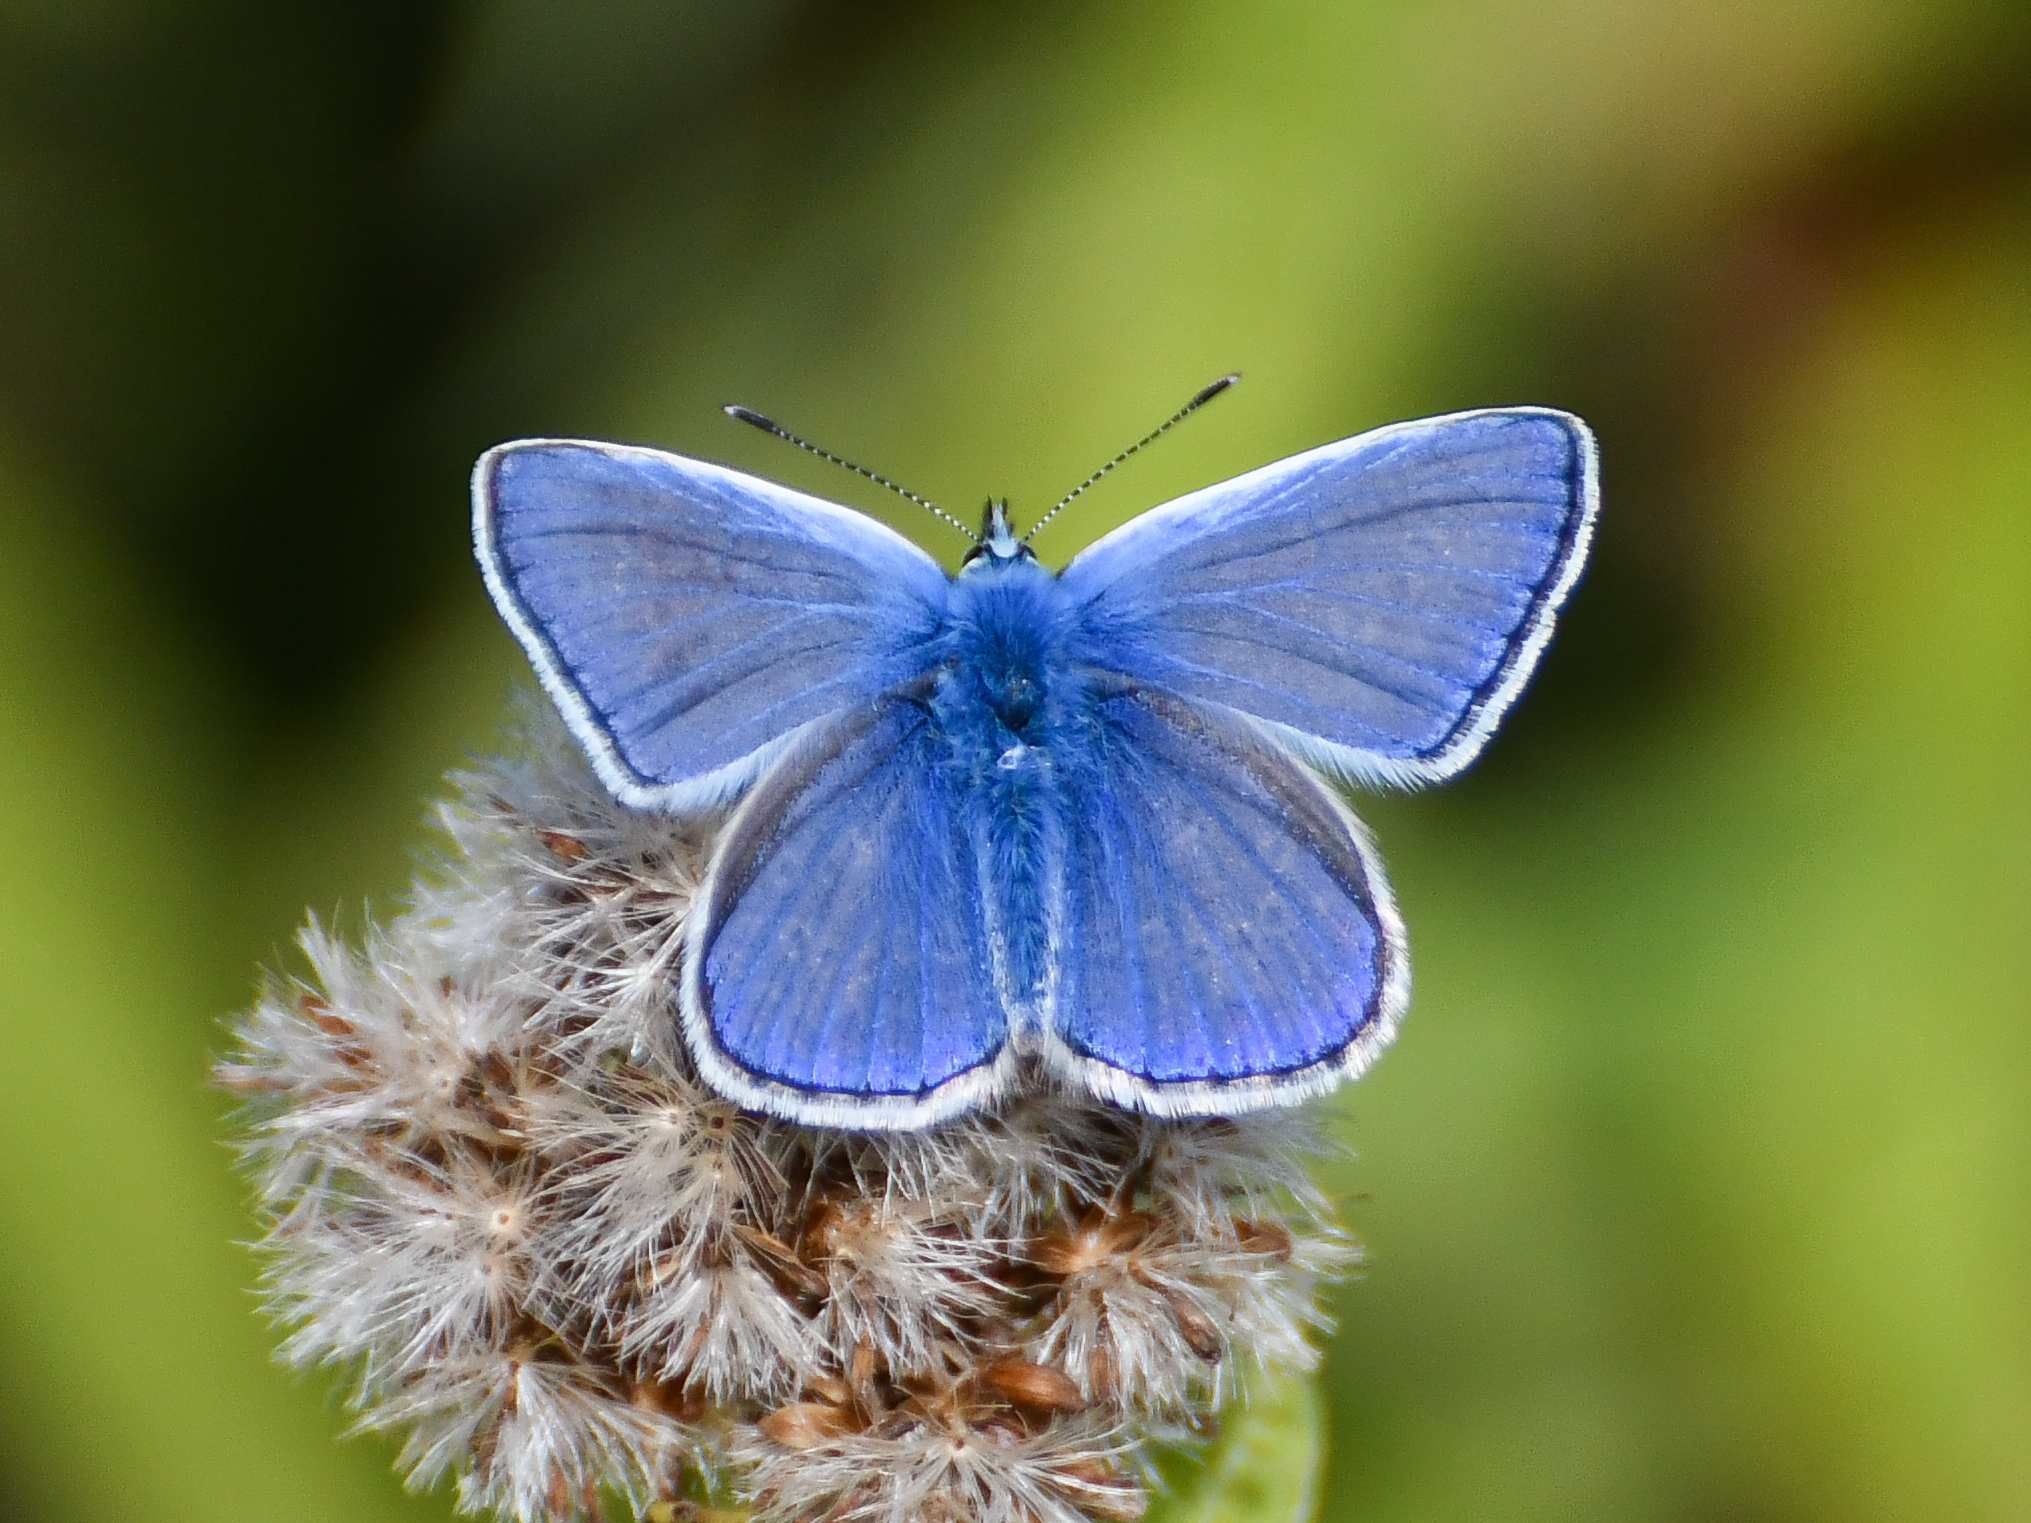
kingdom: Animalia
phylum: Arthropoda
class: Insecta
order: Lepidoptera
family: Lycaenidae
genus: Polyommatus
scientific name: Polyommatus icarus
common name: Common blue
